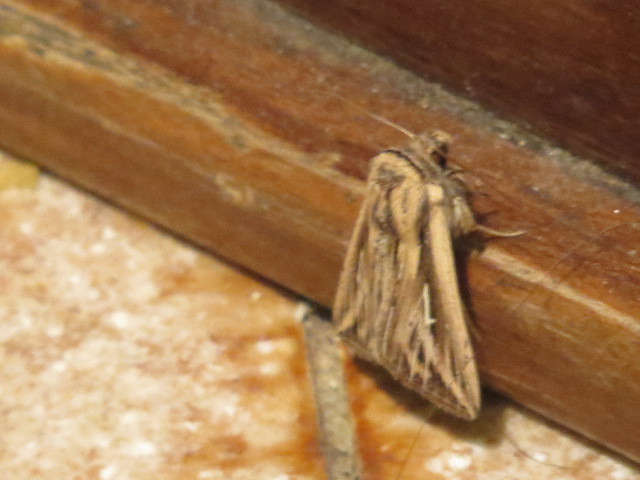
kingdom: Animalia
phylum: Arthropoda
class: Insecta
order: Lepidoptera
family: Noctuidae
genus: Mythimna
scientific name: Mythimna l-album
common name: L-album wainscot
